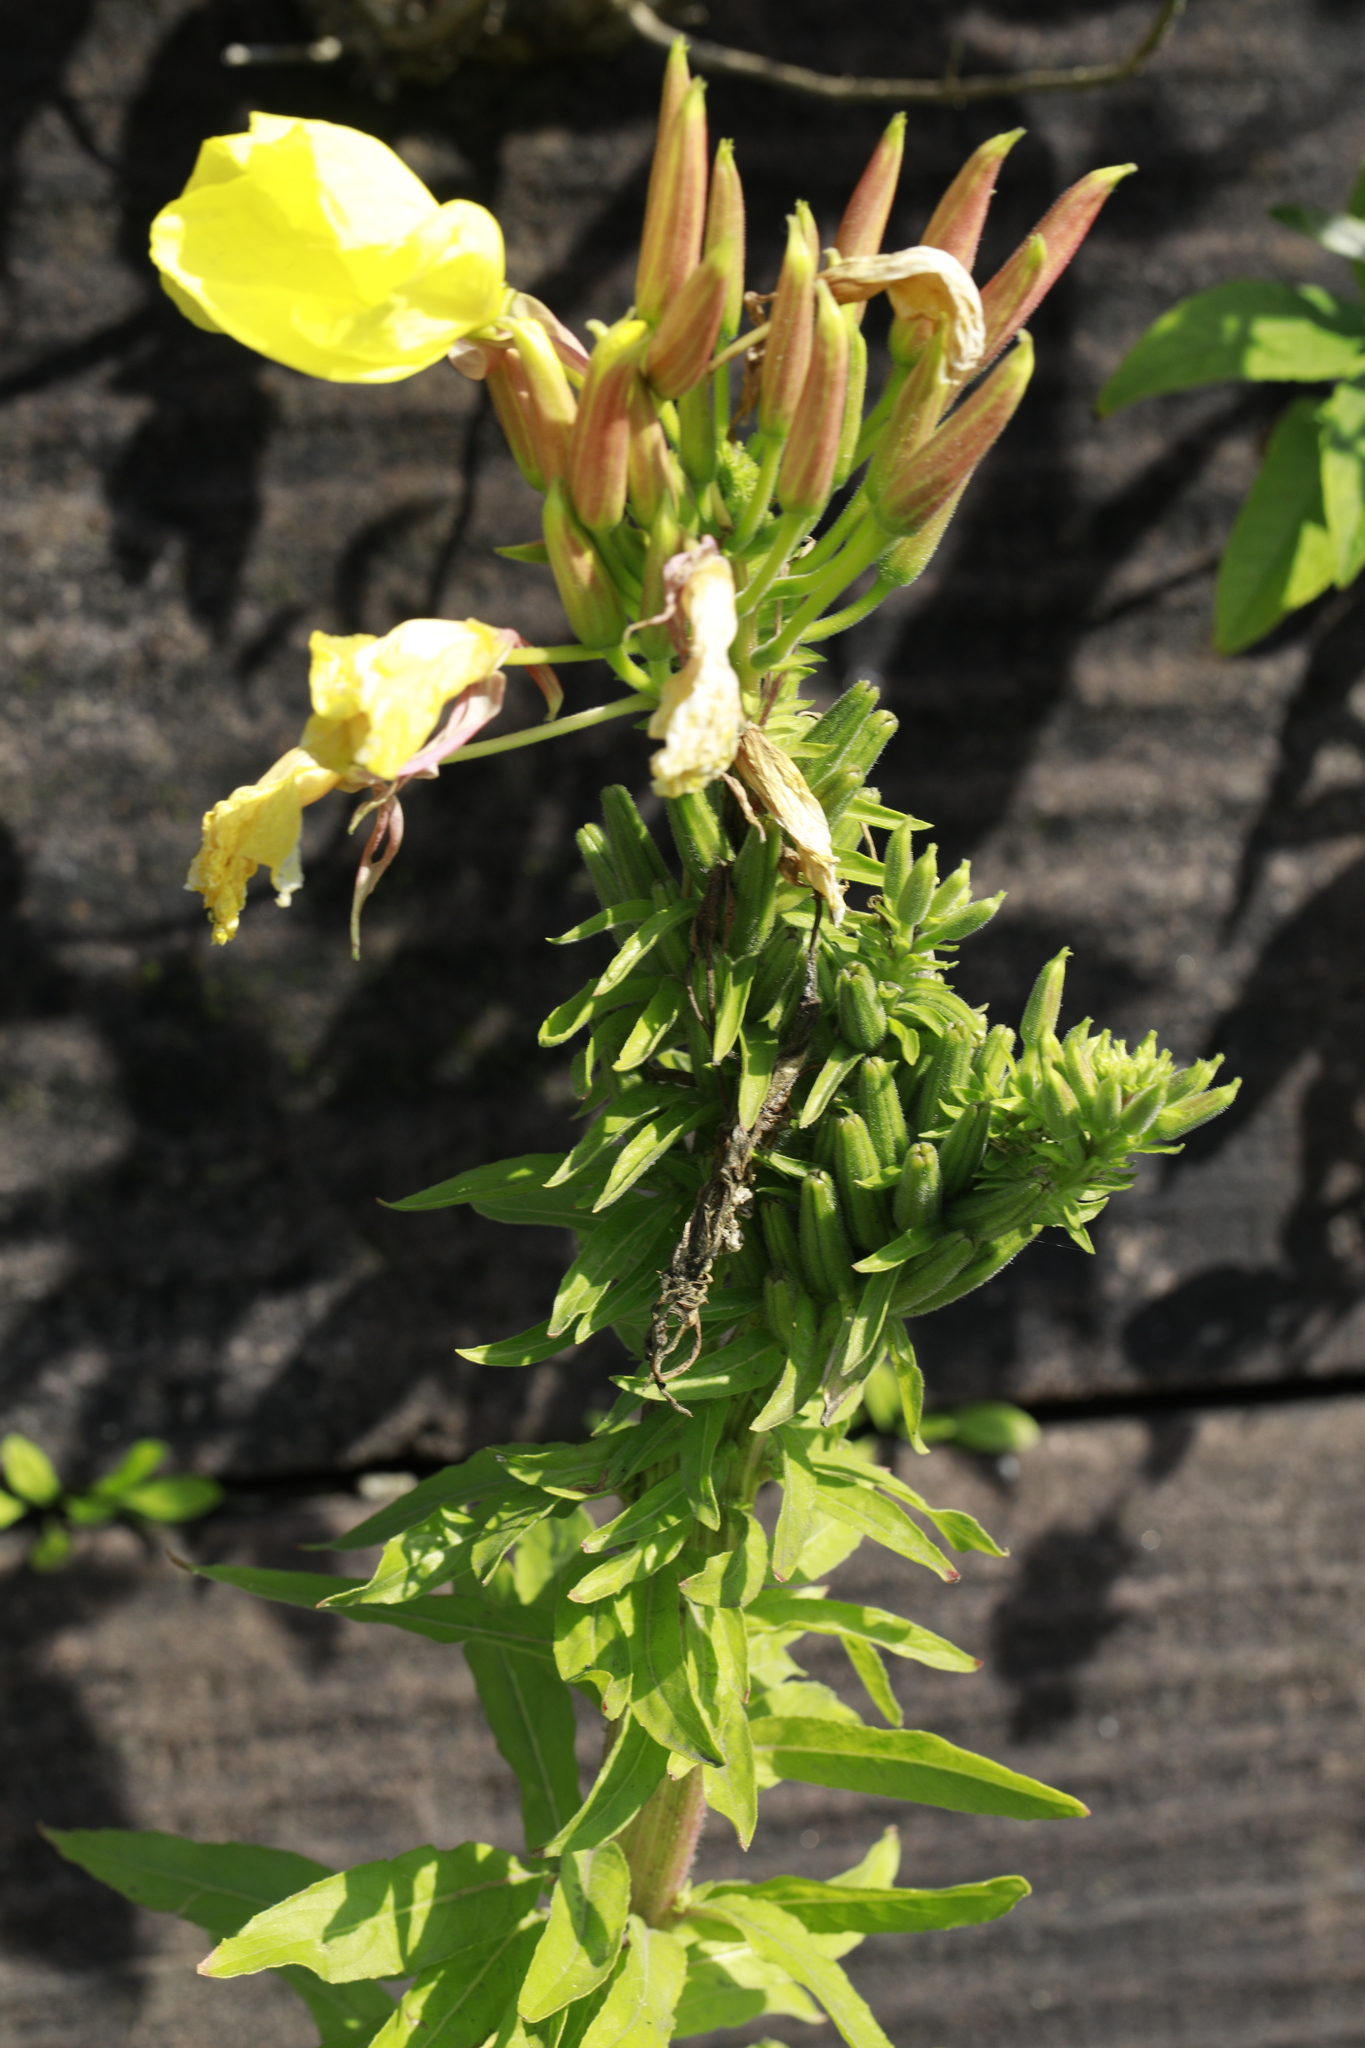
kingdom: Plantae
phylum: Tracheophyta
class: Magnoliopsida
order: Myrtales
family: Onagraceae
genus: Oenothera
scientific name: Oenothera glazioviana
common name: Large-flowered evening-primrose
